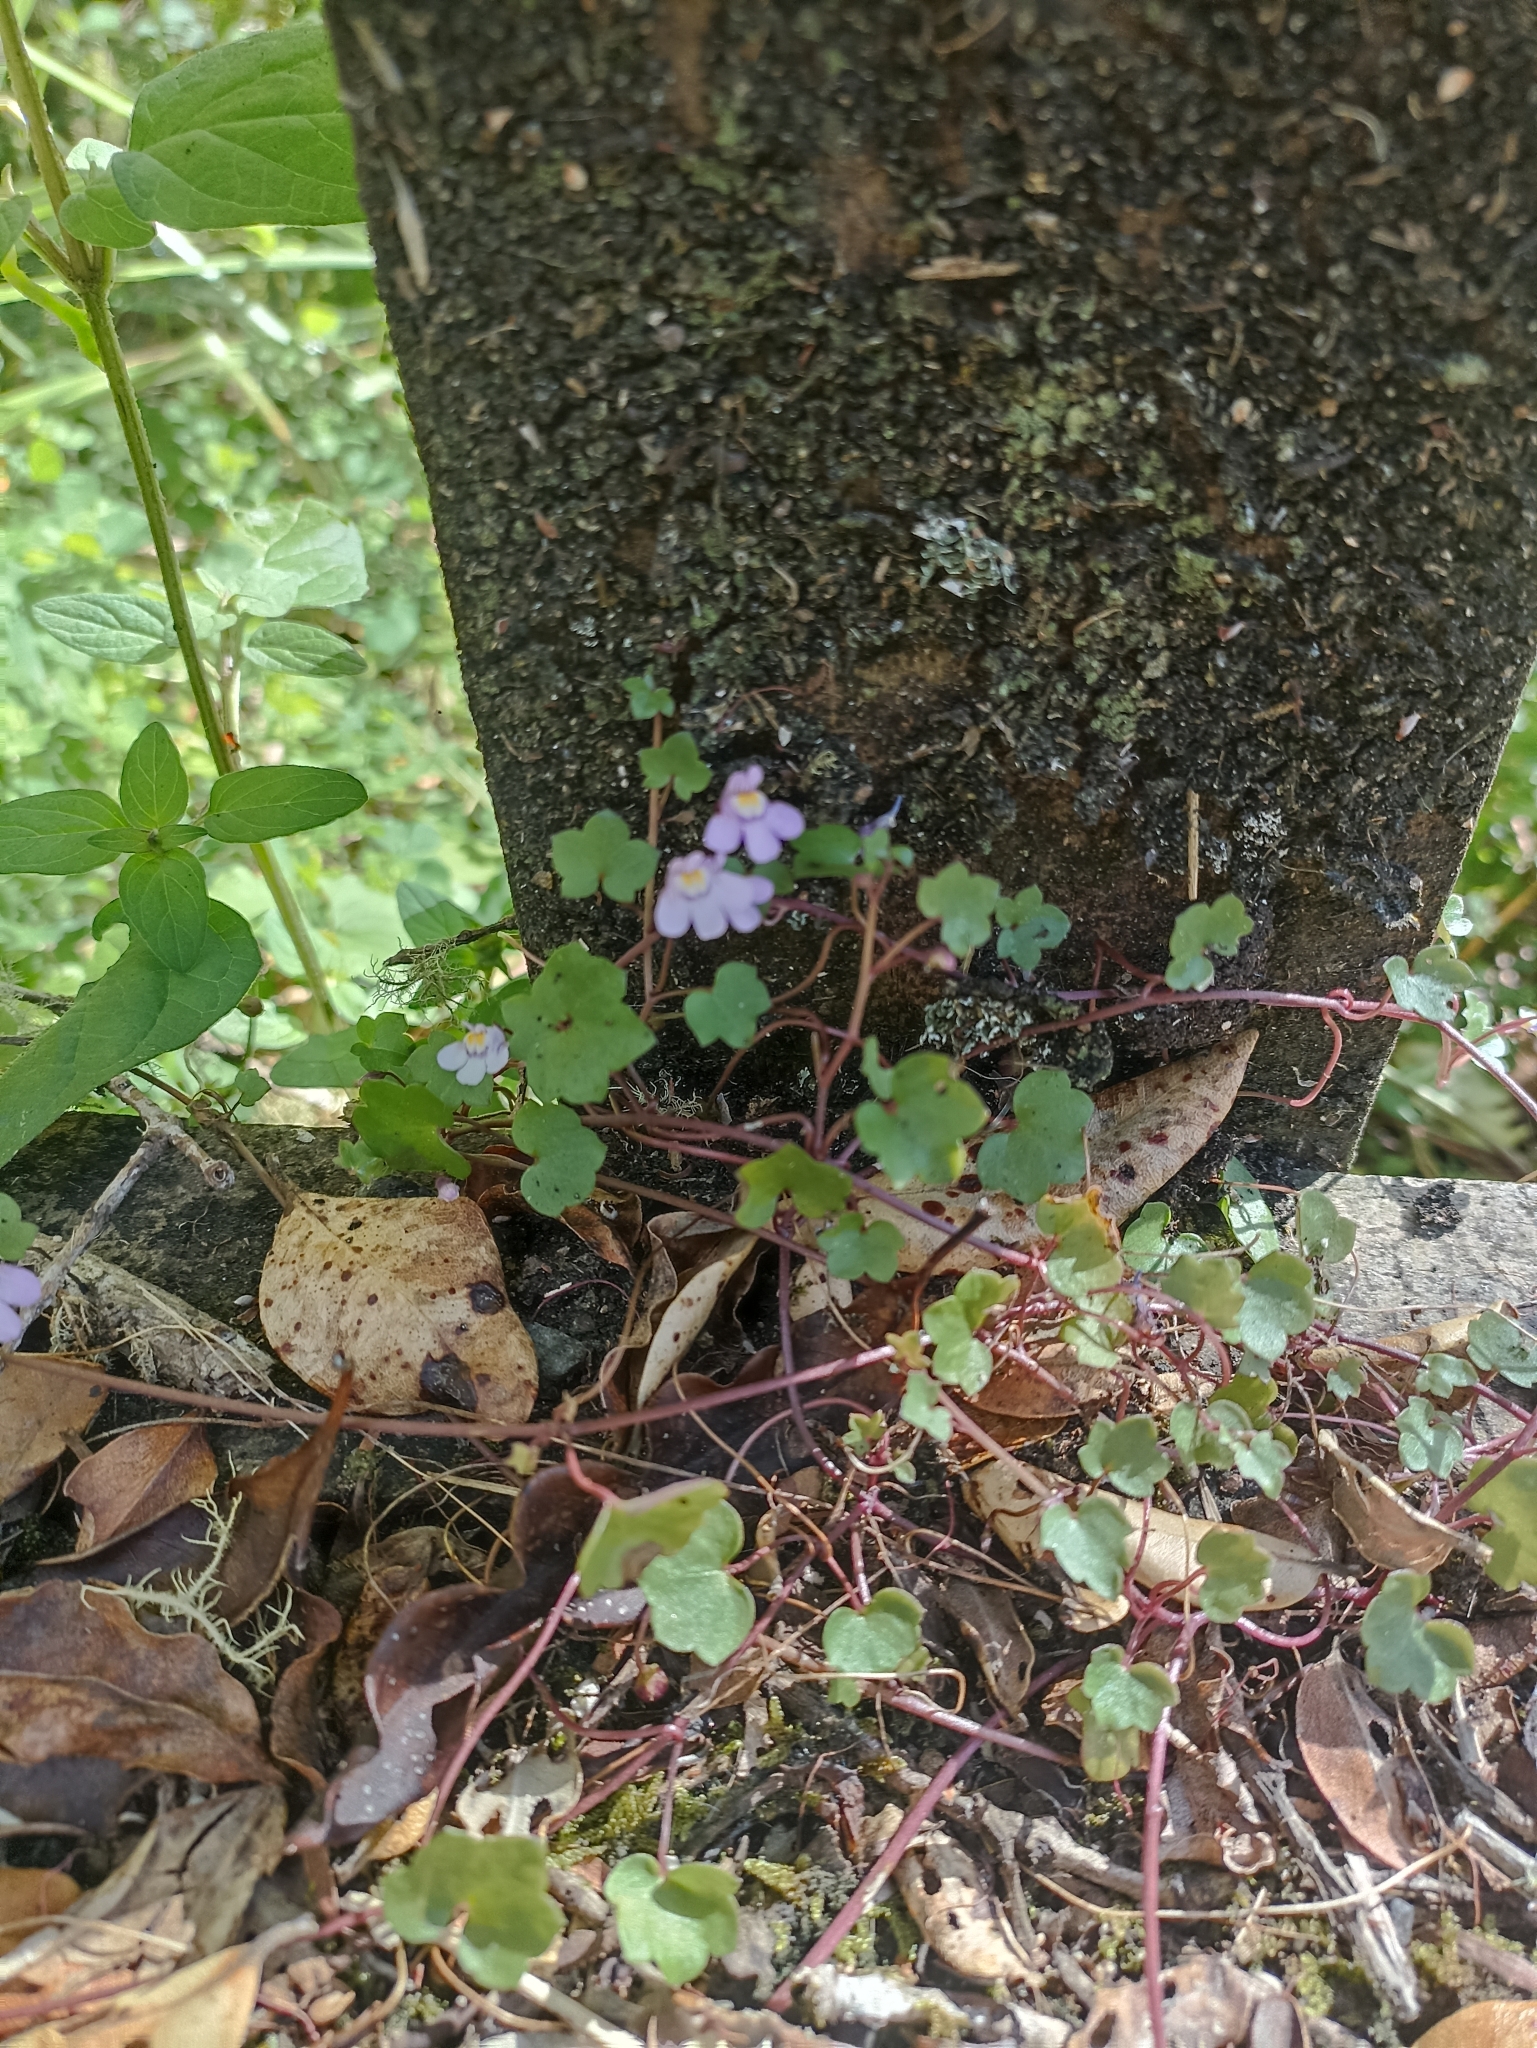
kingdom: Plantae
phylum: Tracheophyta
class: Magnoliopsida
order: Lamiales
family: Plantaginaceae
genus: Cymbalaria
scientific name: Cymbalaria muralis
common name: Ivy-leaved toadflax
